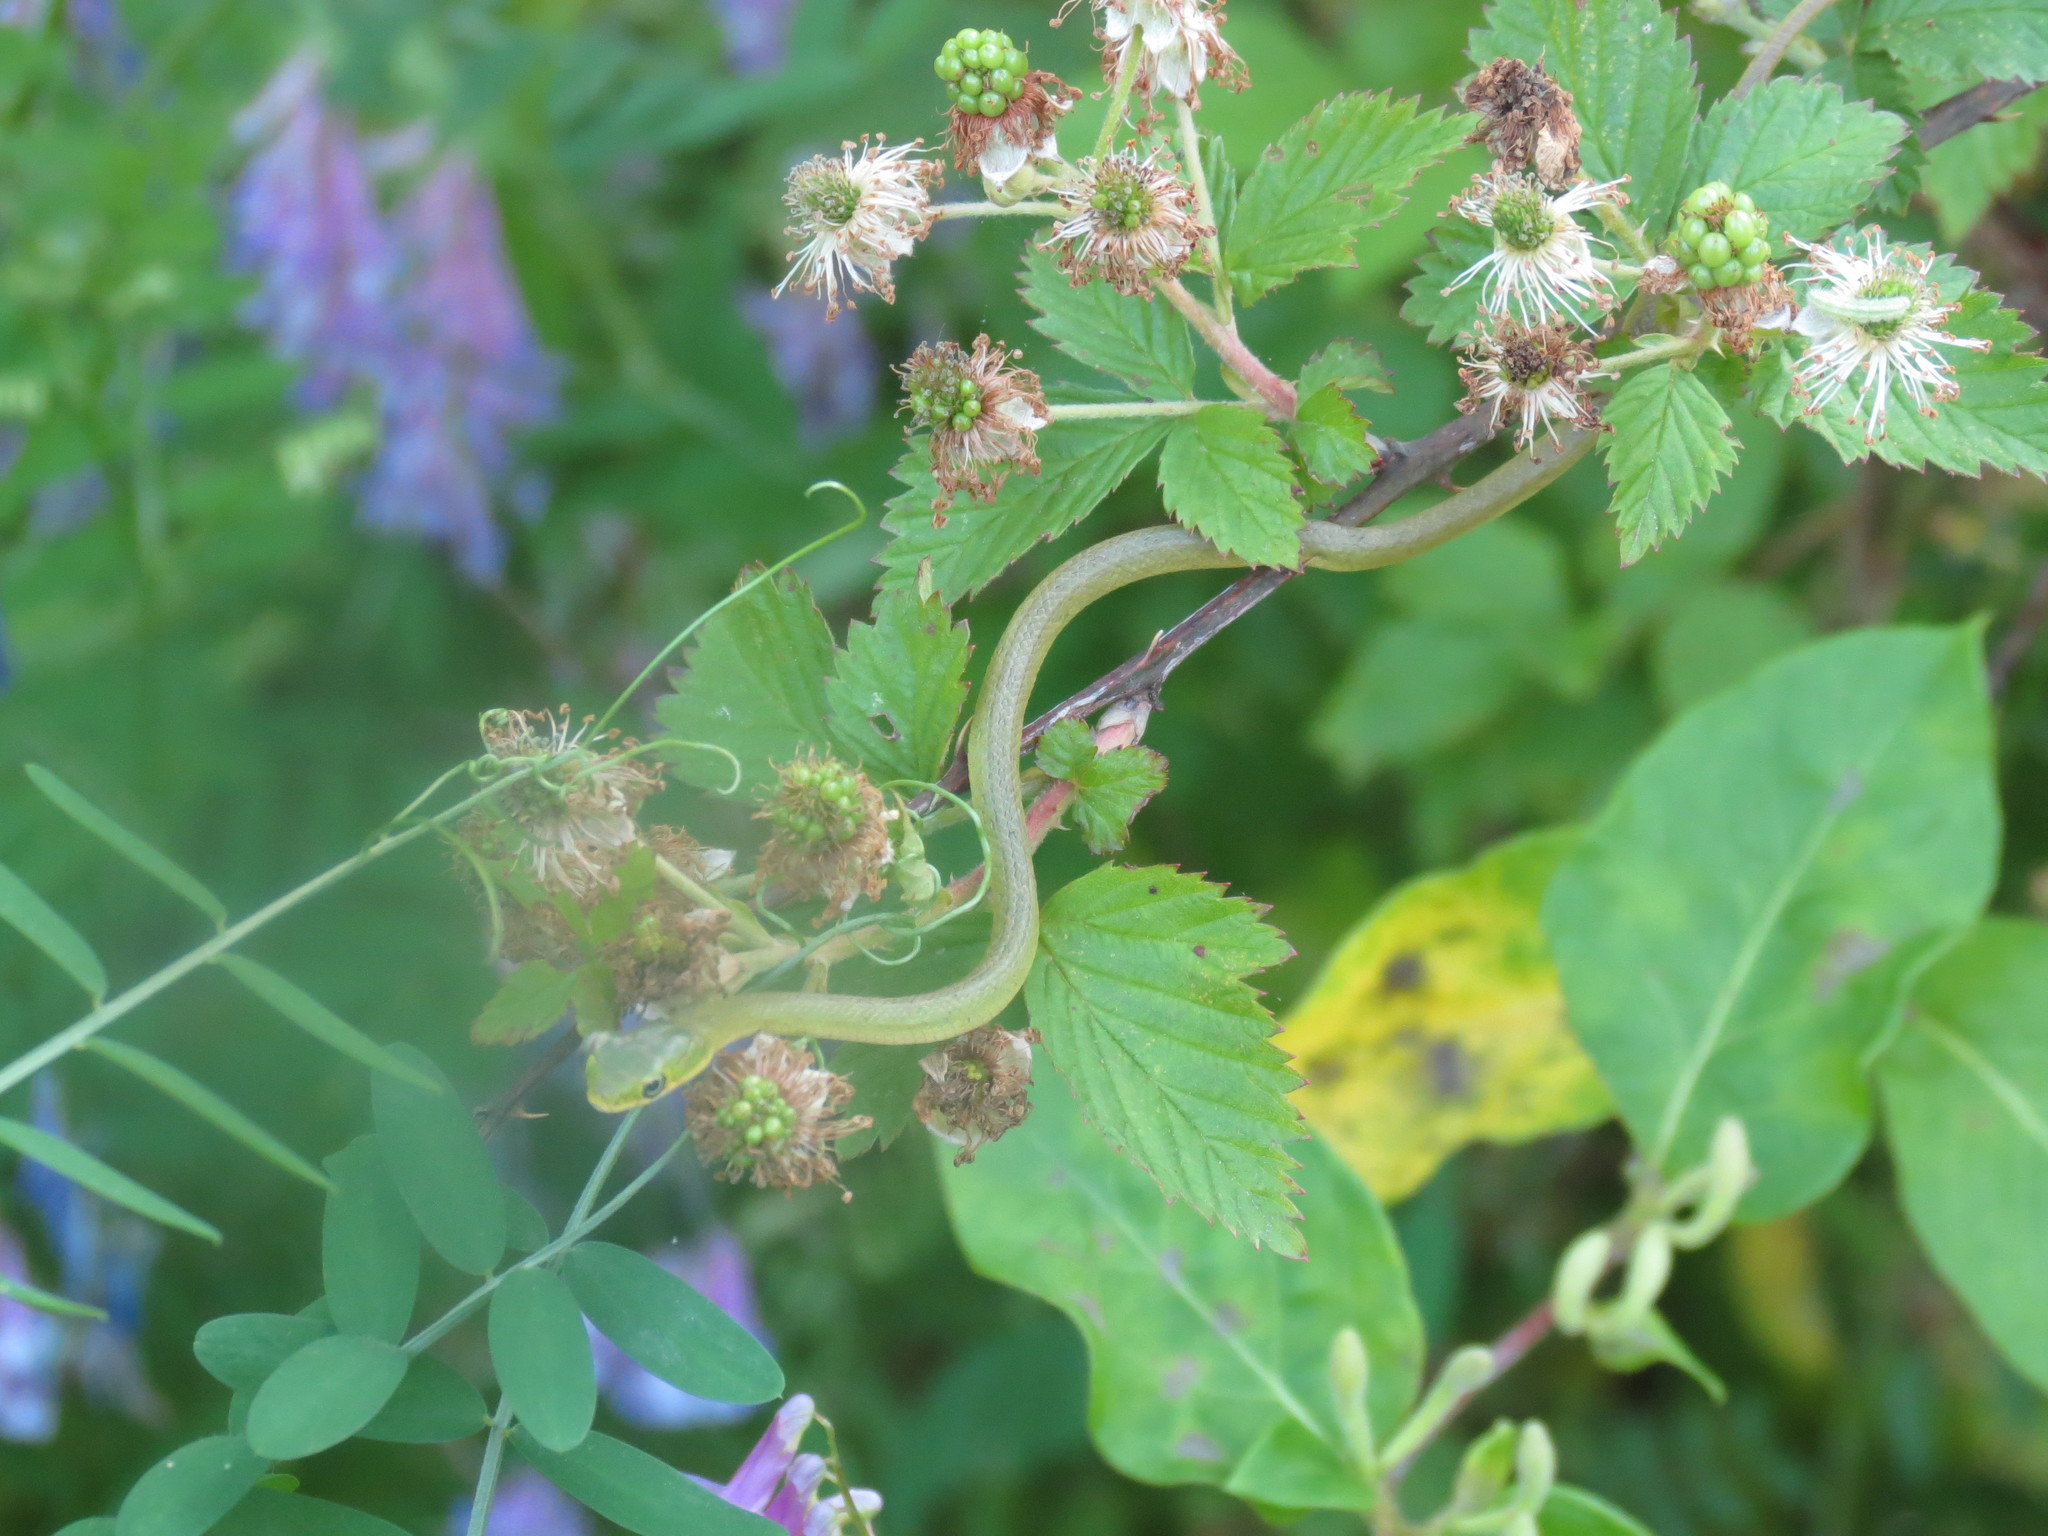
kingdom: Animalia
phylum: Chordata
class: Squamata
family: Colubridae
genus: Opheodrys
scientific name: Opheodrys aestivus
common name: Rough greensnake
